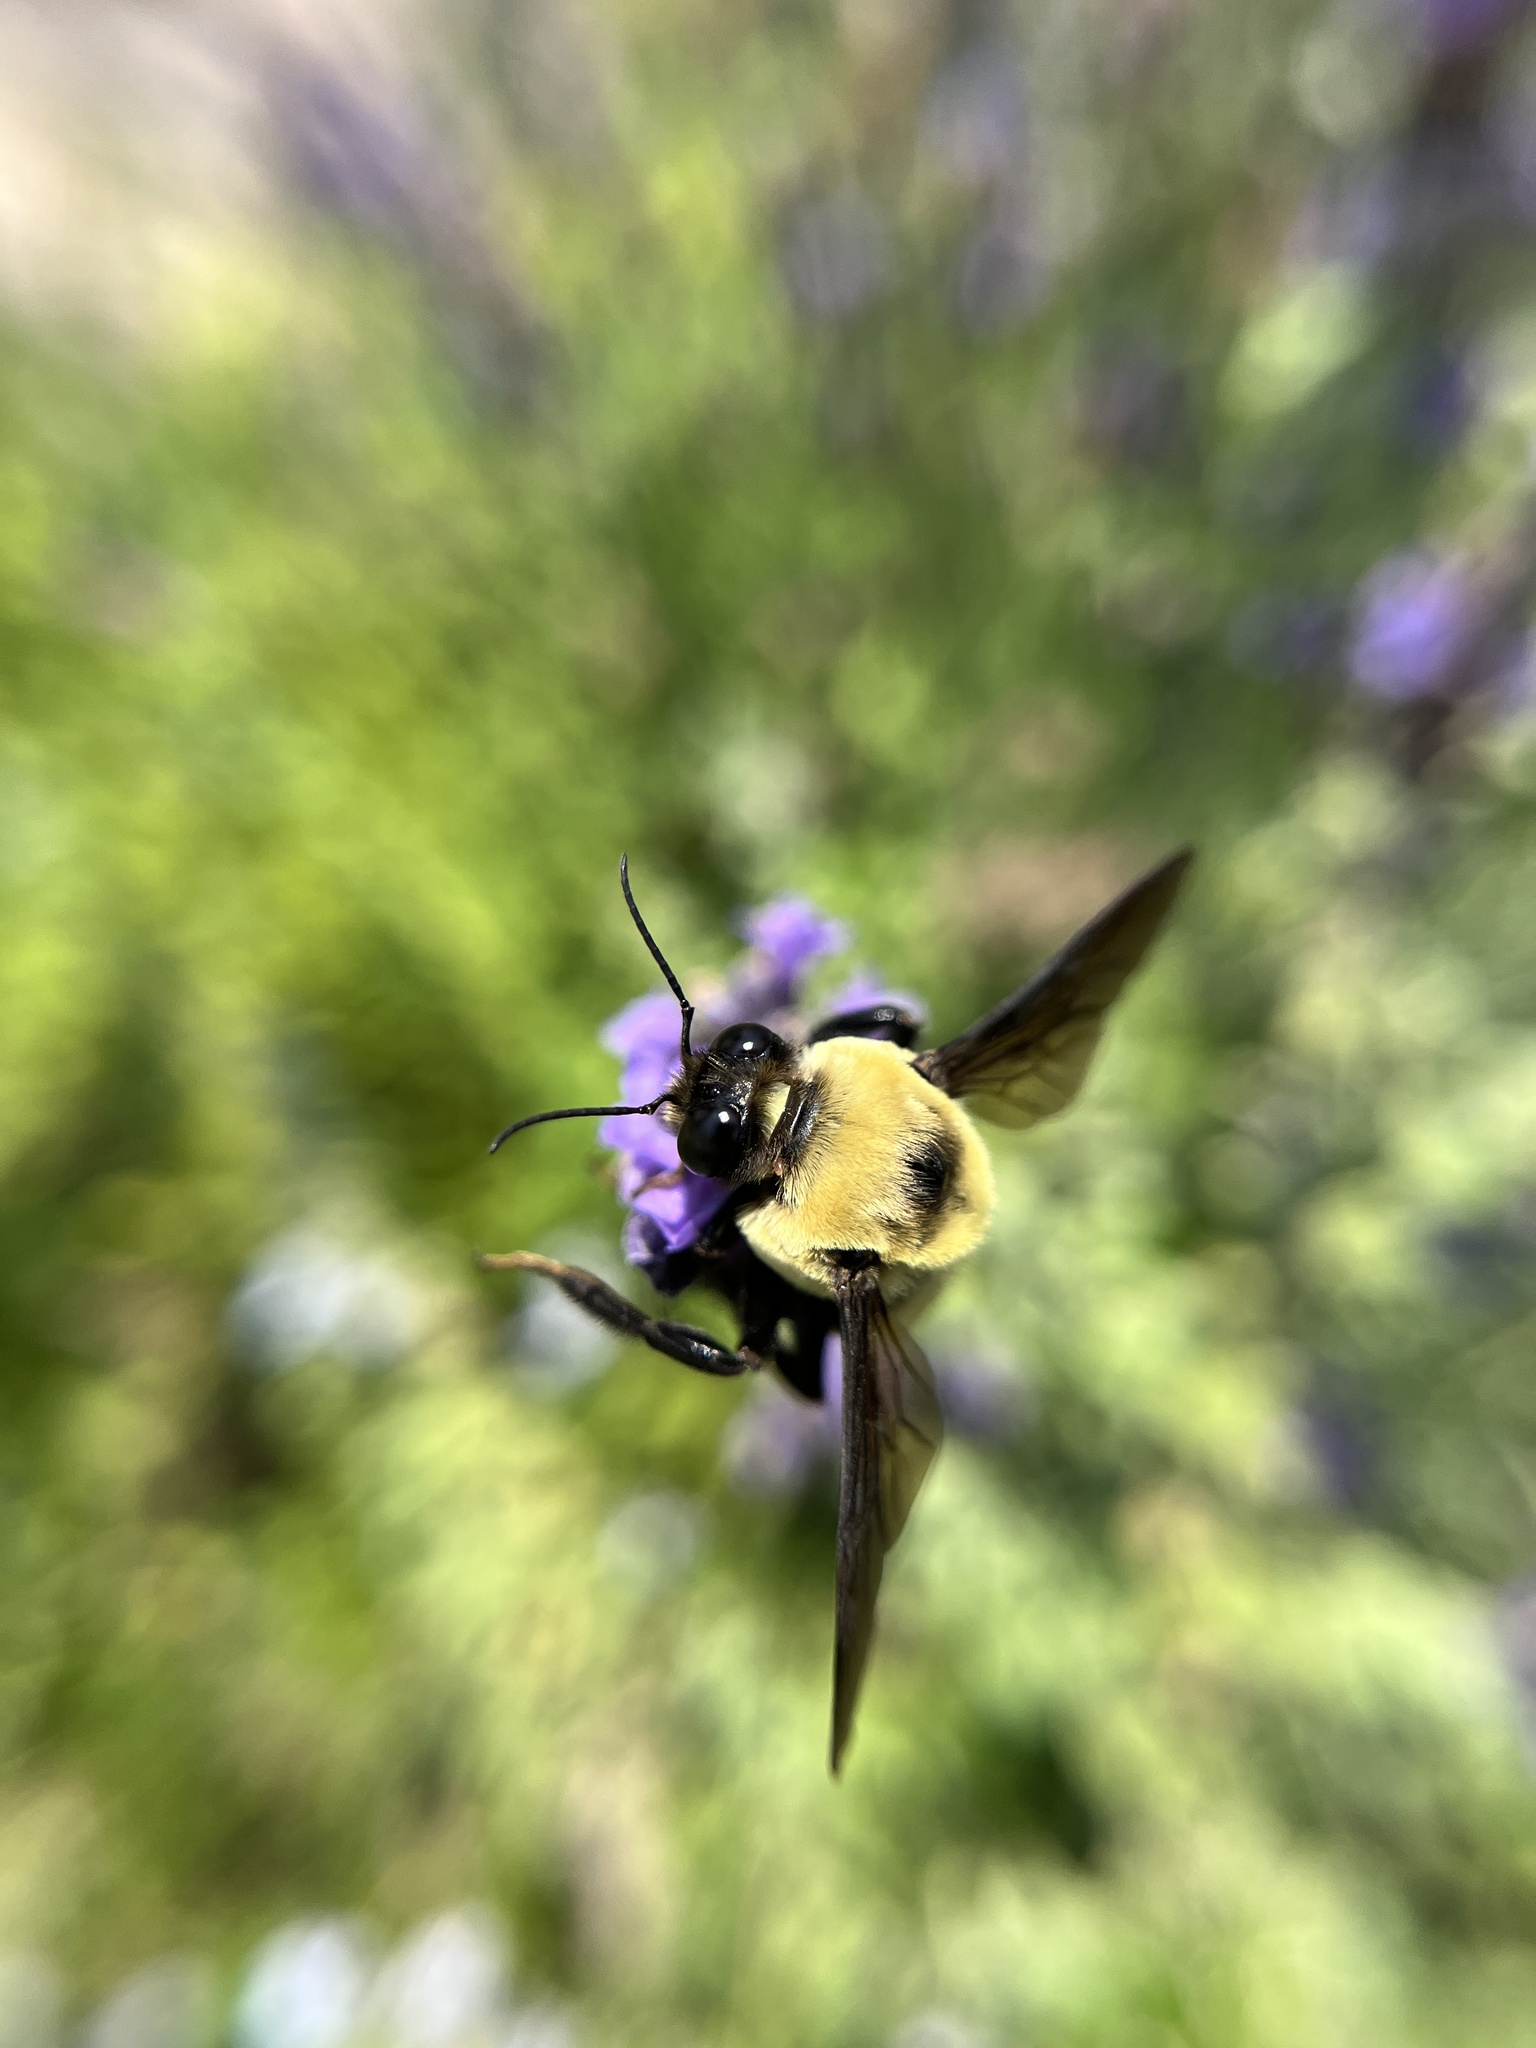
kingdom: Animalia
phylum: Arthropoda
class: Insecta
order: Hymenoptera
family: Apidae
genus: Bombus
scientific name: Bombus fraternus
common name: Southern plains bumble bee
